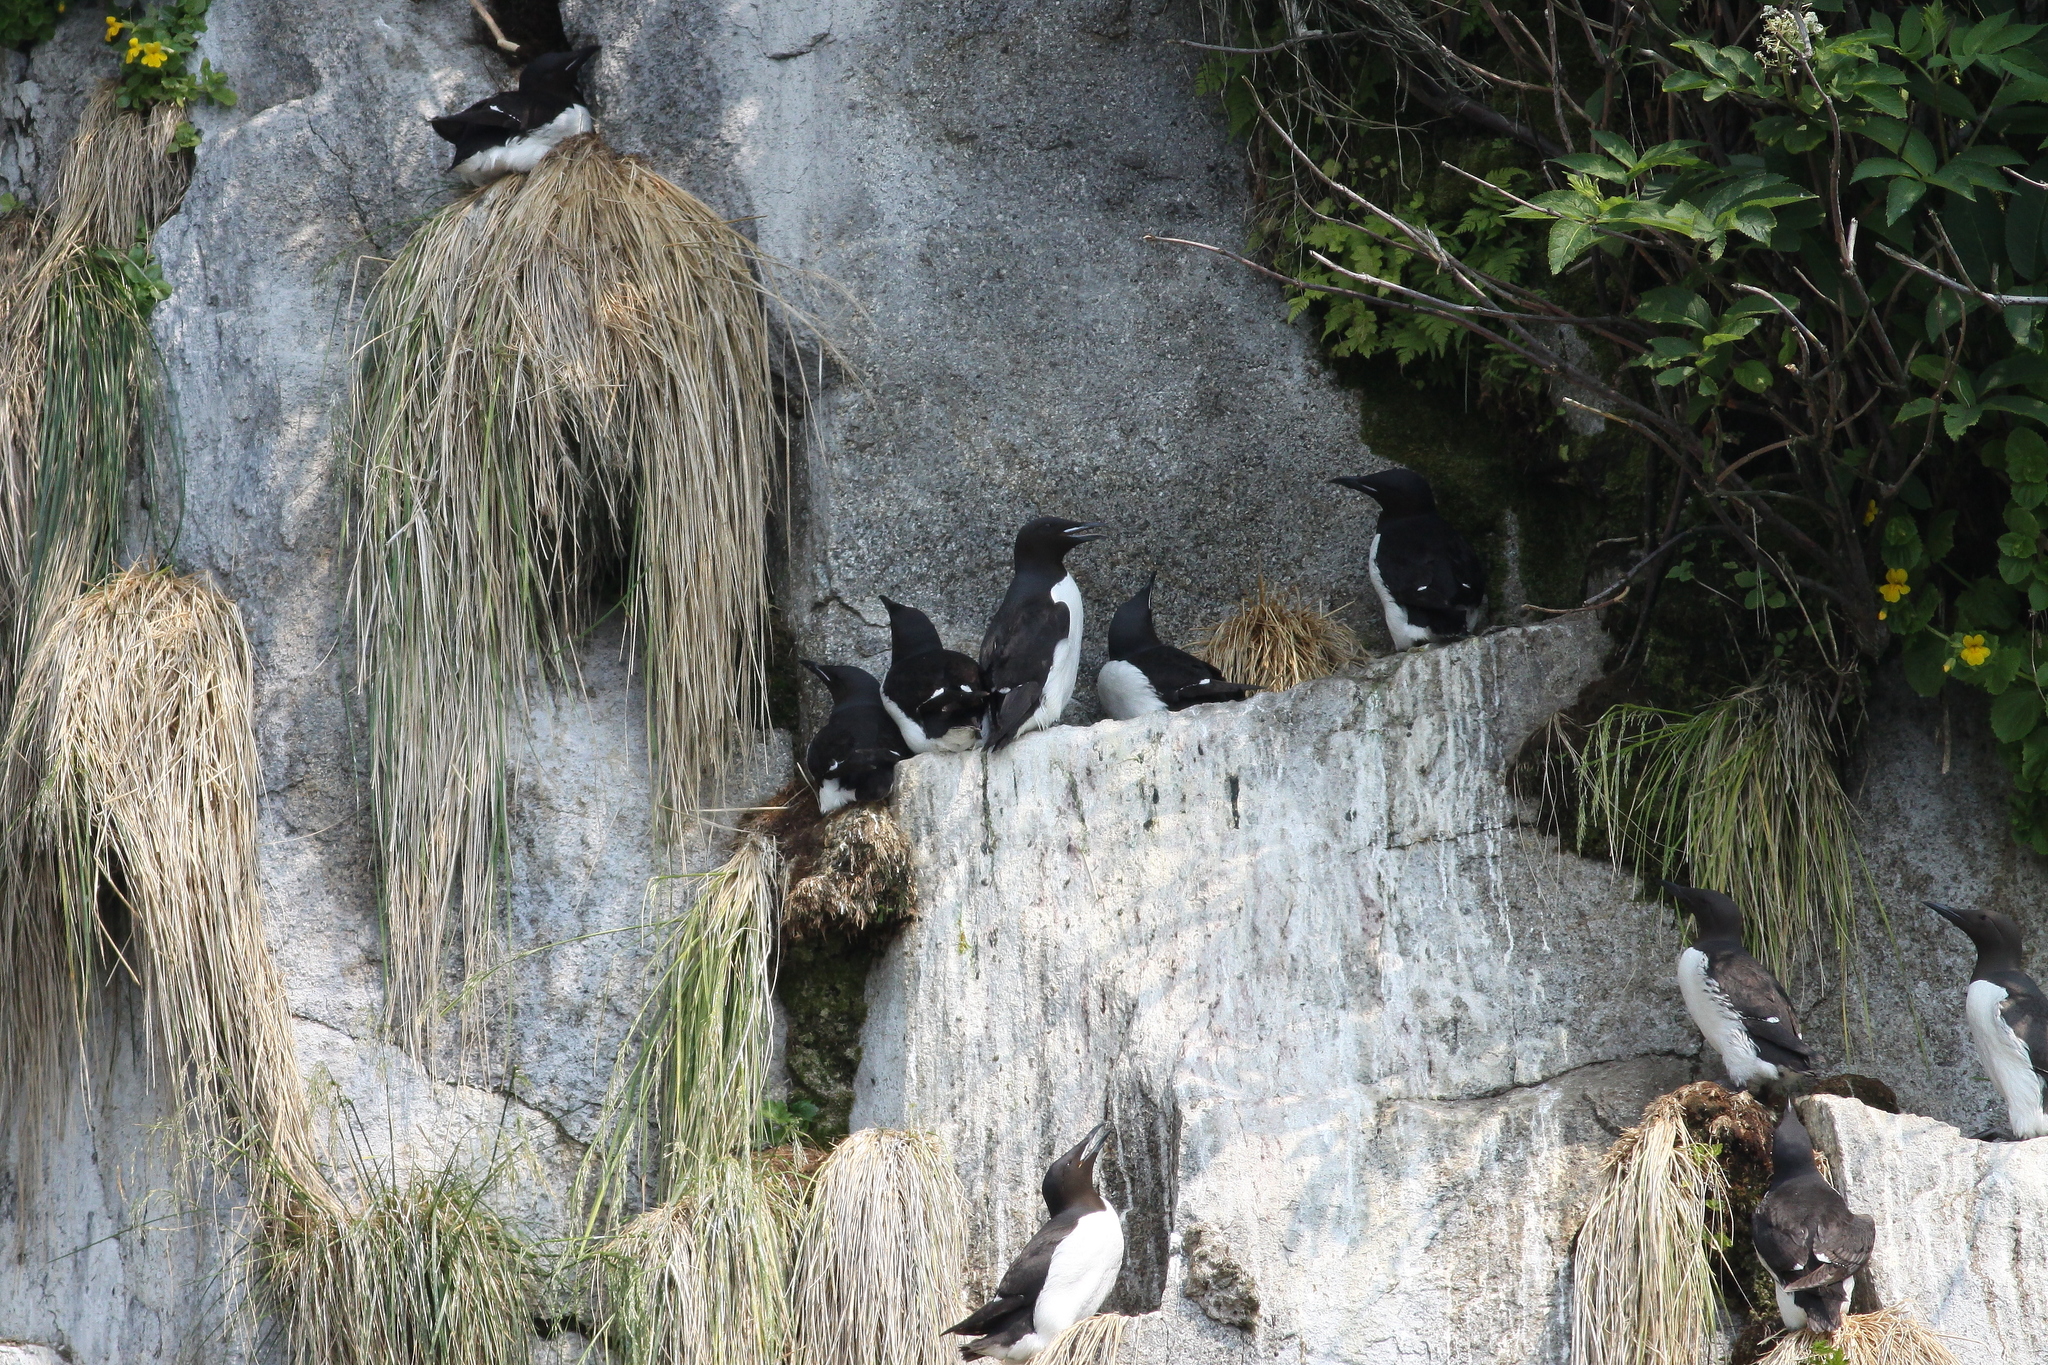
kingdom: Animalia
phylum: Chordata
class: Aves
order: Charadriiformes
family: Alcidae
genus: Uria
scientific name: Uria lomvia
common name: Thick-billed murre
